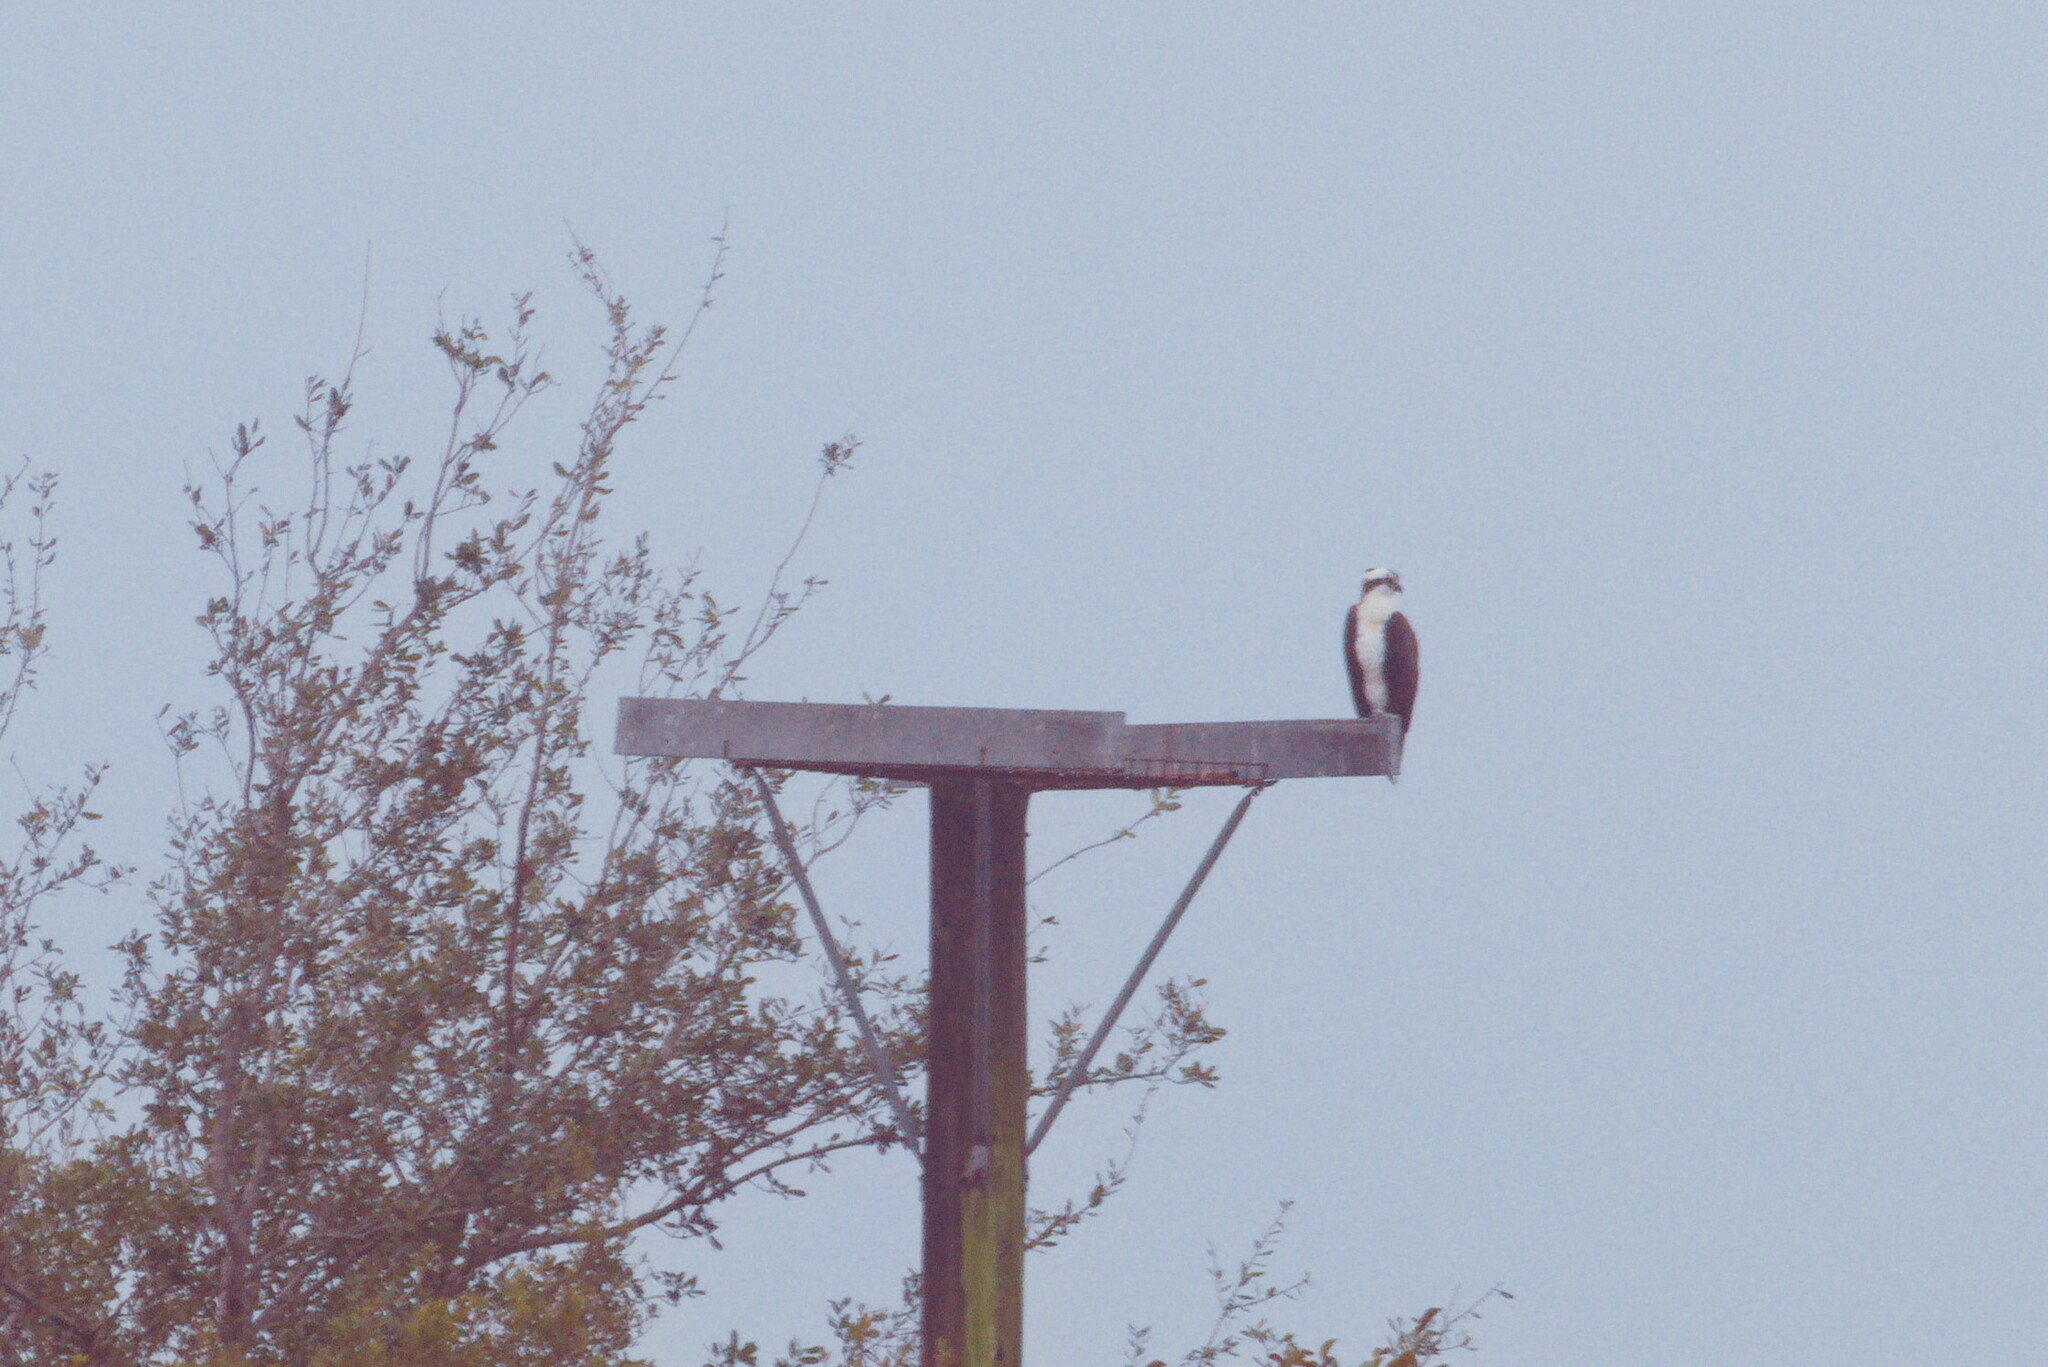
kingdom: Animalia
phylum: Chordata
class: Aves
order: Accipitriformes
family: Pandionidae
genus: Pandion
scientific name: Pandion haliaetus
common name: Osprey
